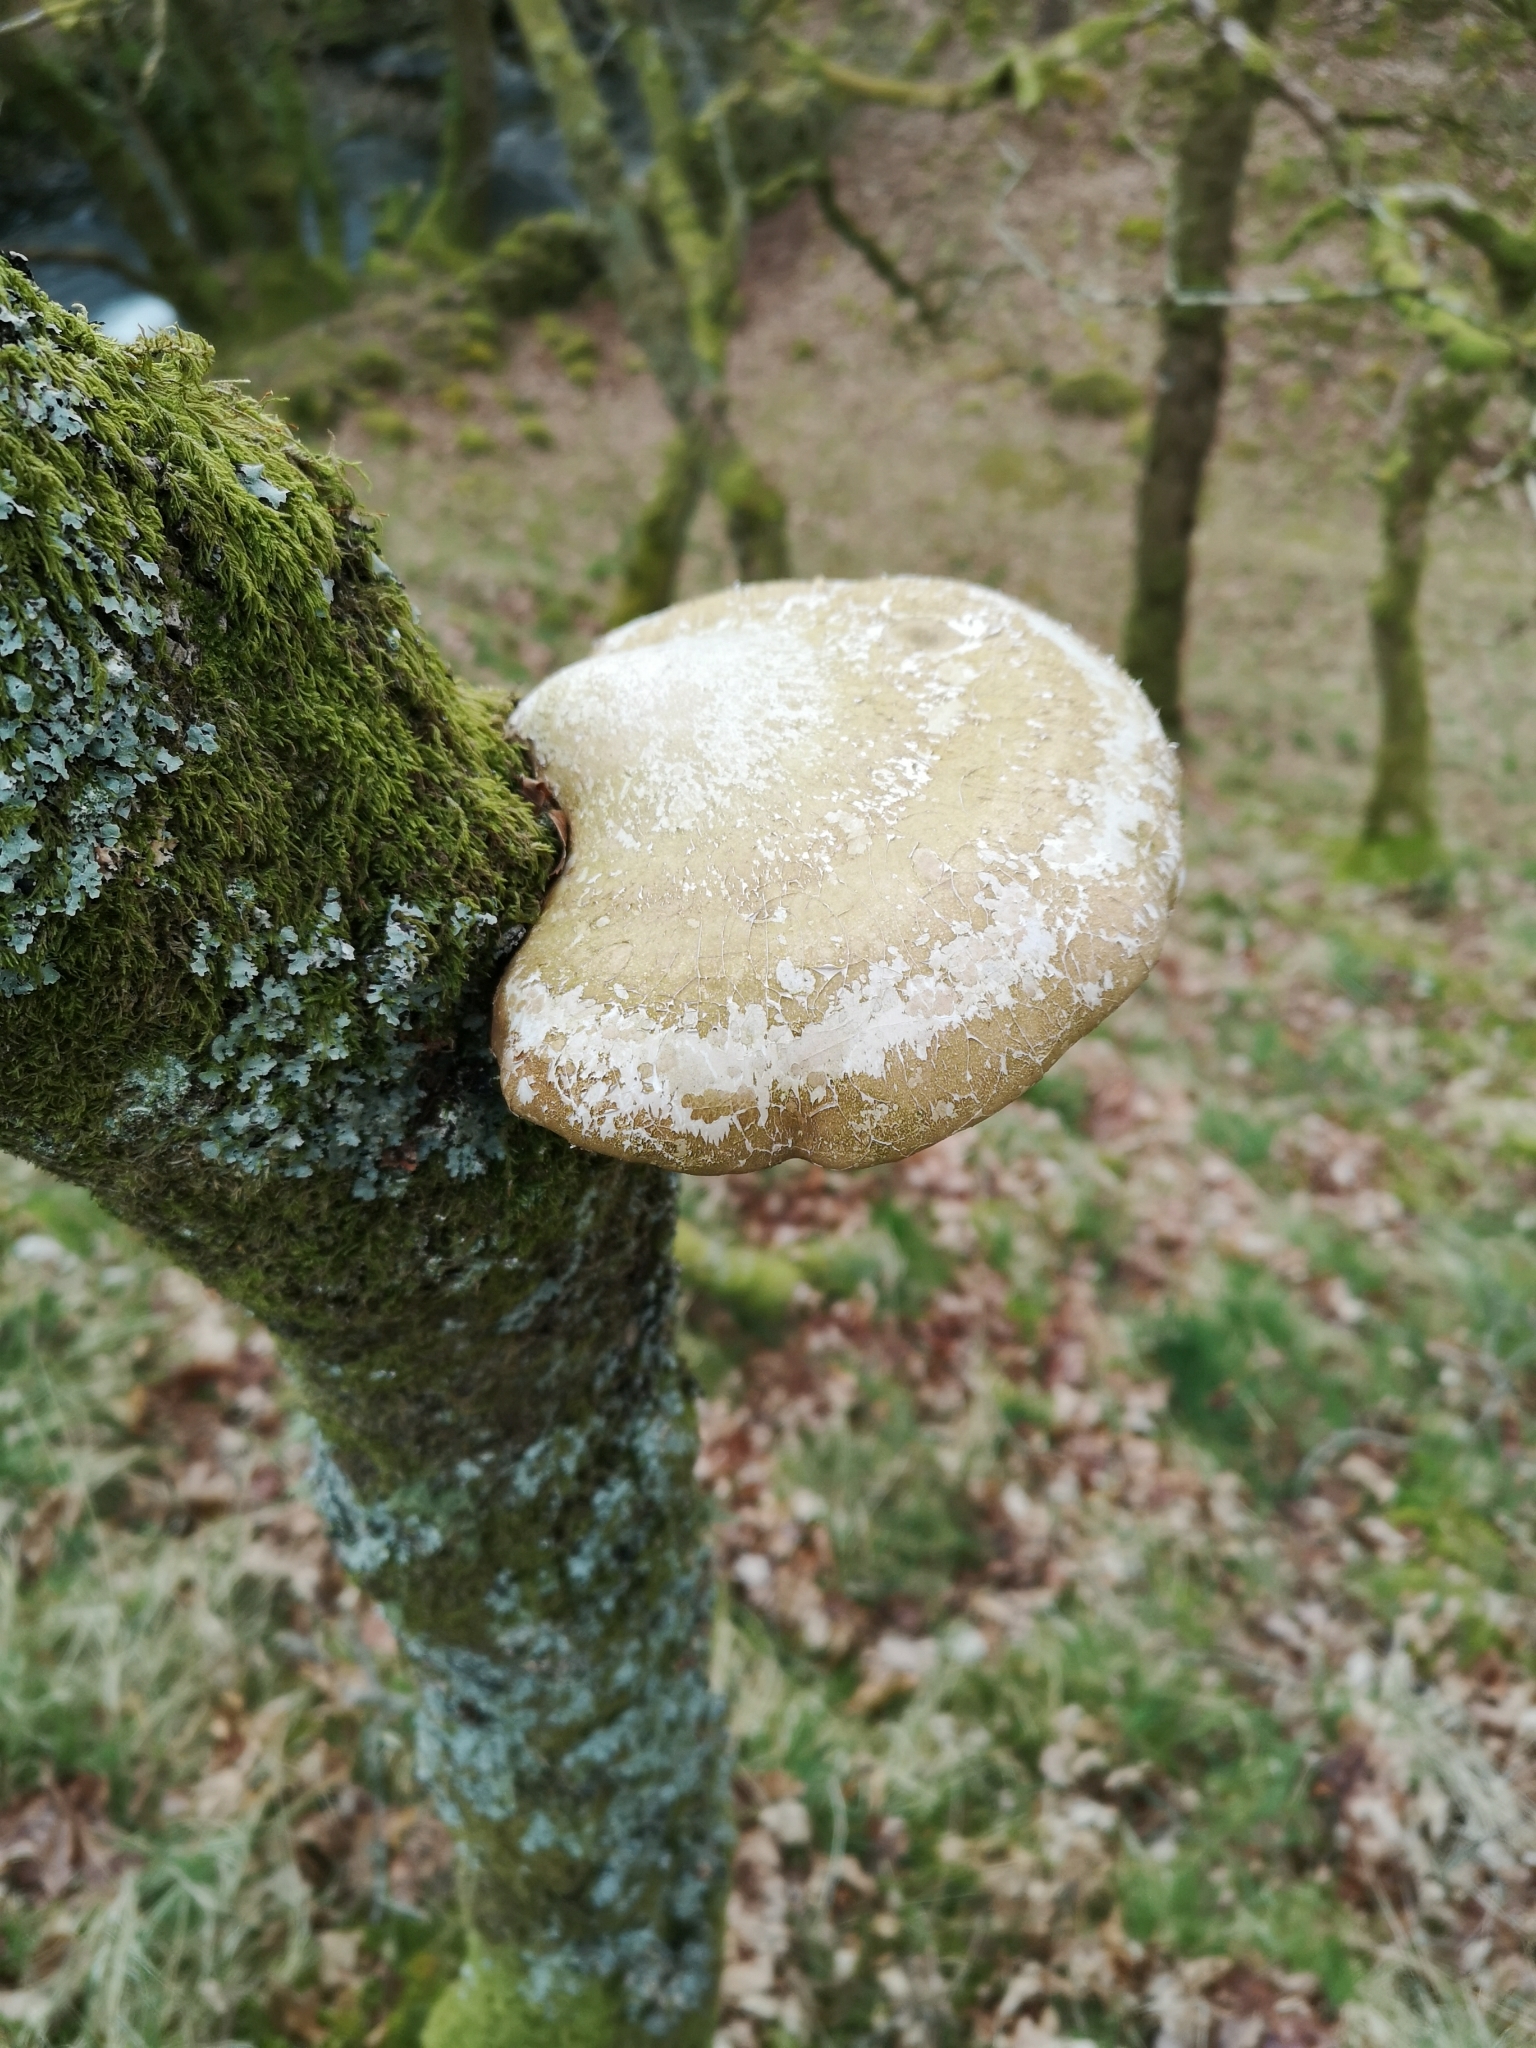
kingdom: Fungi
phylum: Basidiomycota
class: Agaricomycetes
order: Polyporales
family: Fomitopsidaceae
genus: Fomitopsis
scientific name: Fomitopsis betulina
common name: Birch polypore
